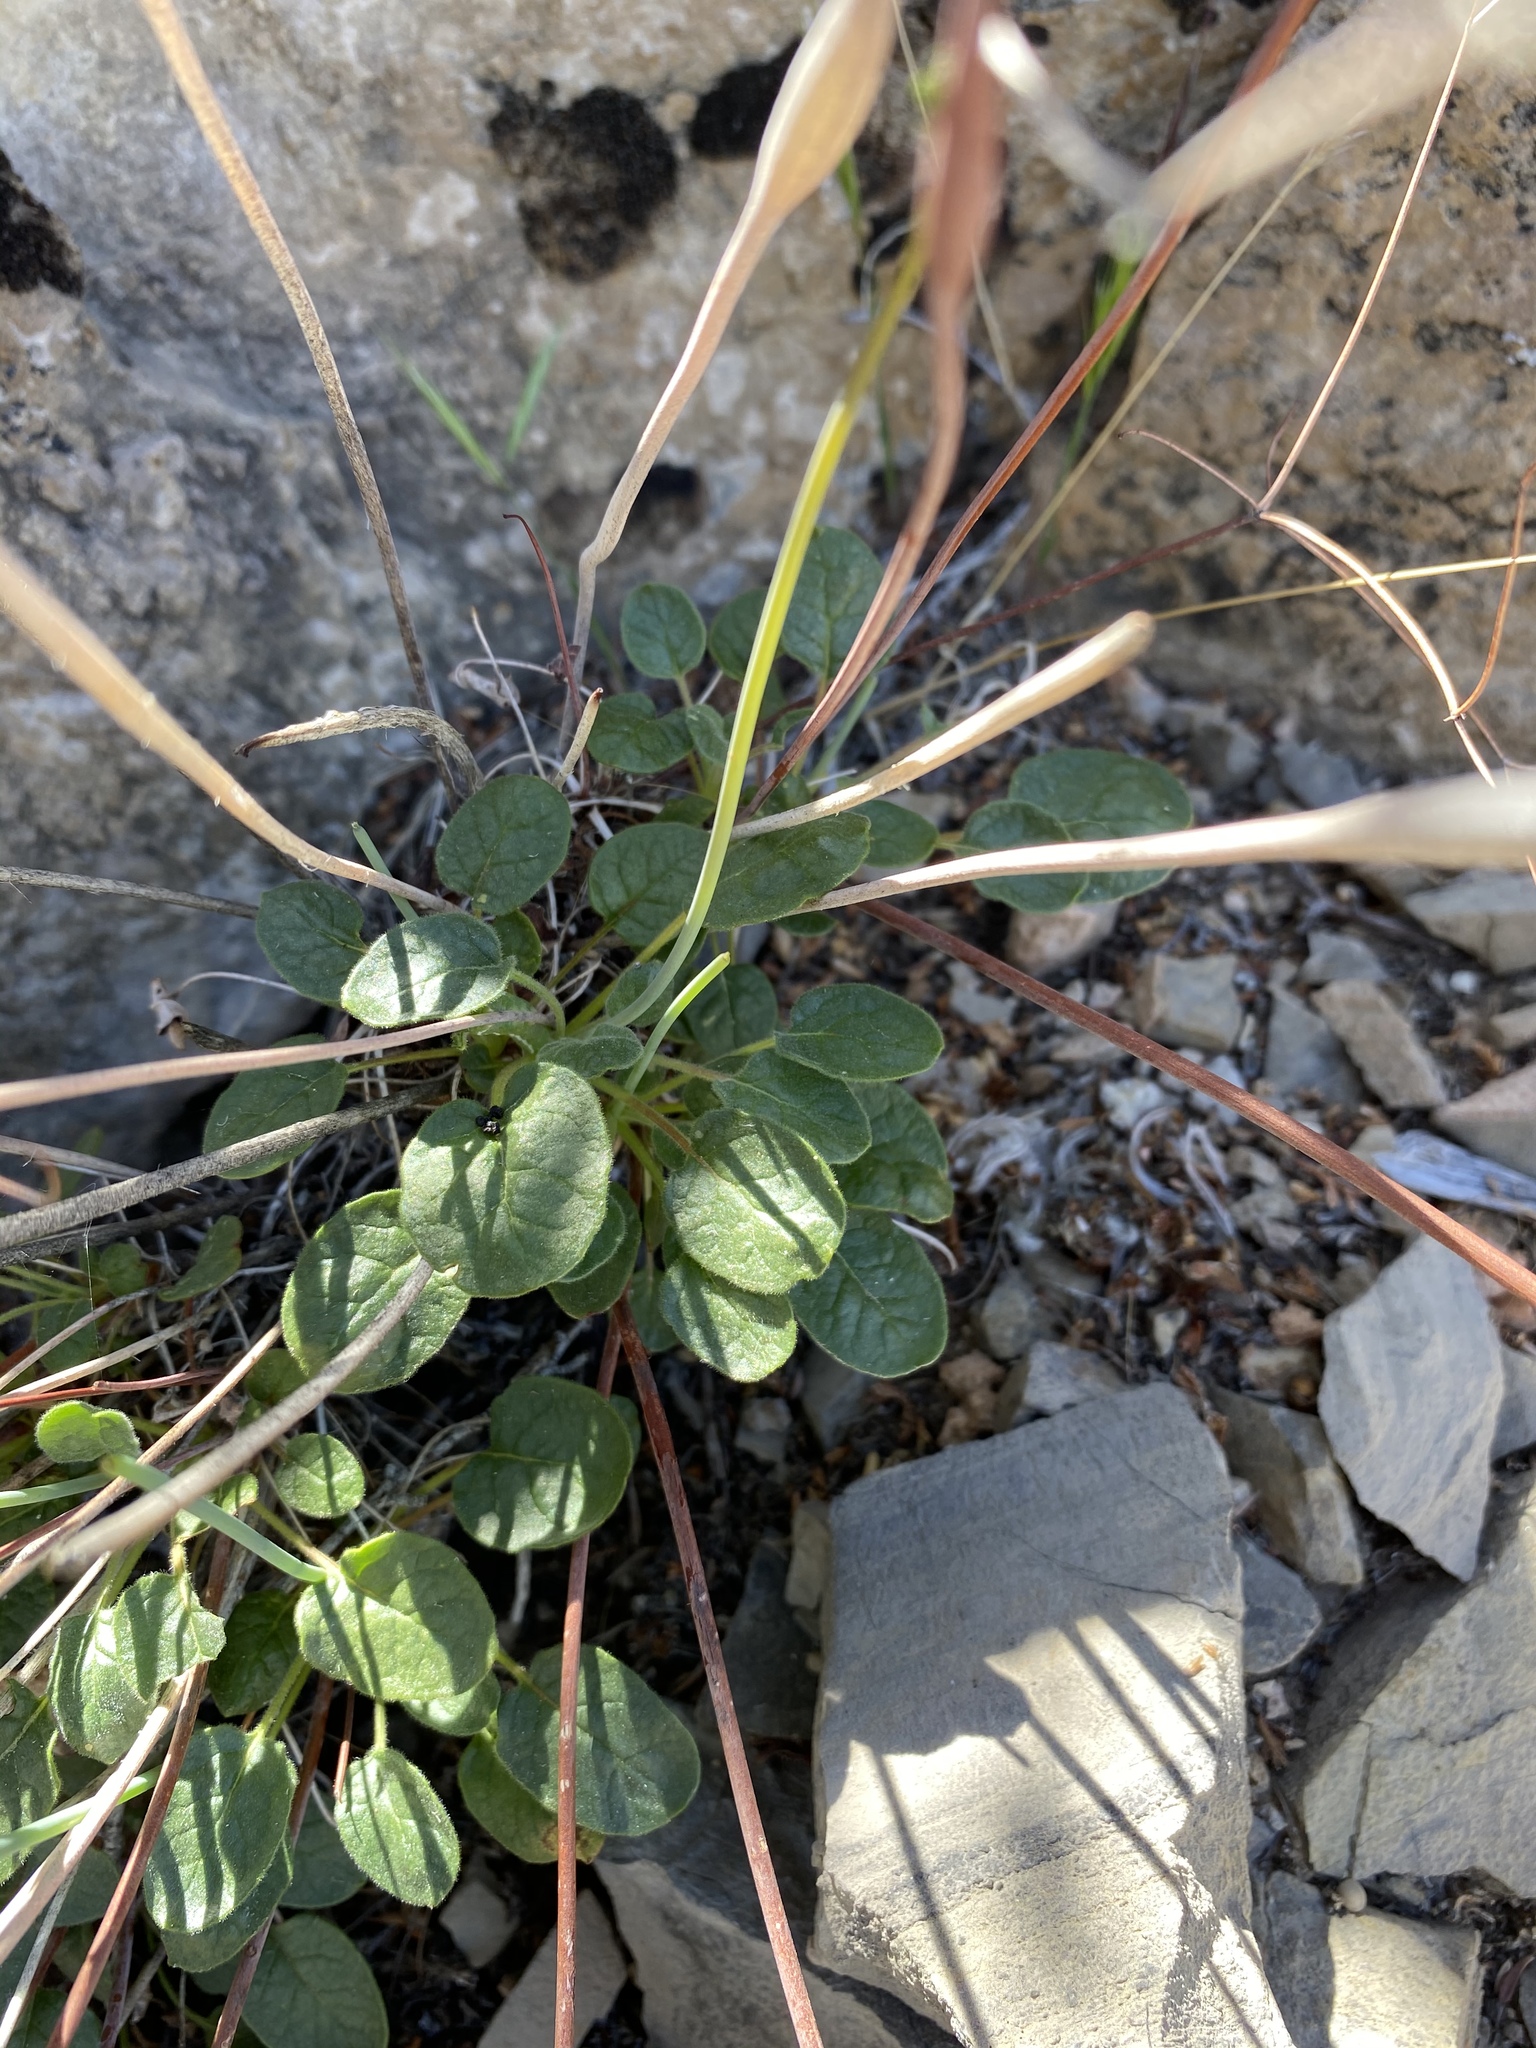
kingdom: Plantae
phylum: Tracheophyta
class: Magnoliopsida
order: Caryophyllales
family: Polygonaceae
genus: Eriogonum
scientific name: Eriogonum inflatum
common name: Desert trumpet
